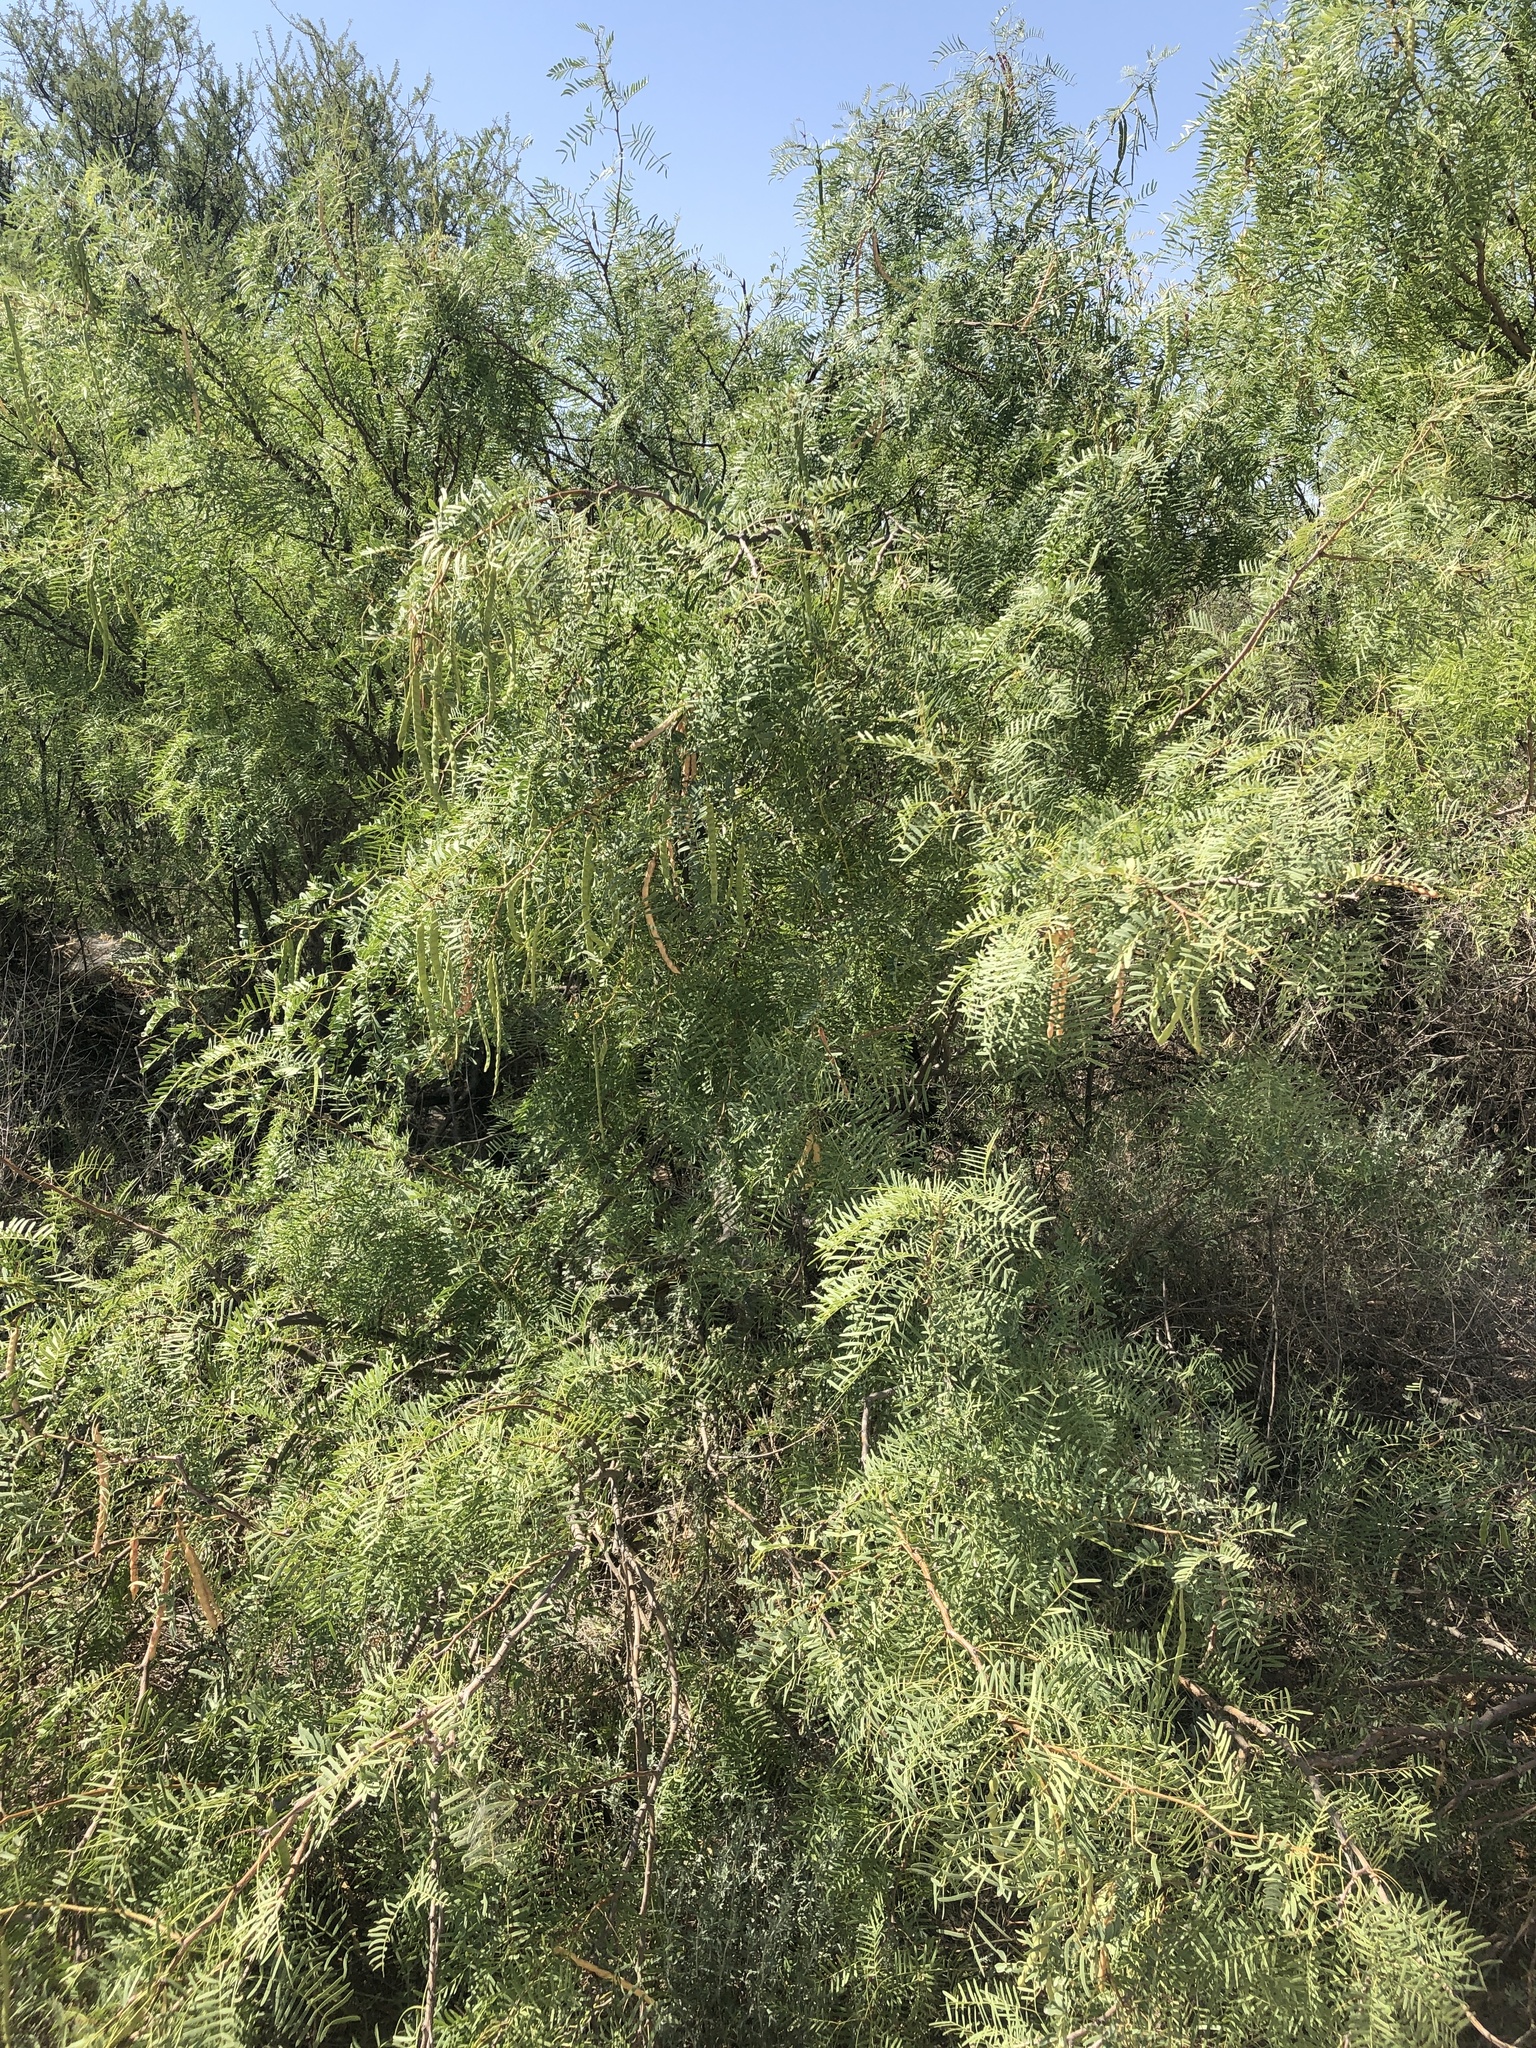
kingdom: Plantae
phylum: Tracheophyta
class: Magnoliopsida
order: Fabales
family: Fabaceae
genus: Prosopis
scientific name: Prosopis glandulosa
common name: Honey mesquite
